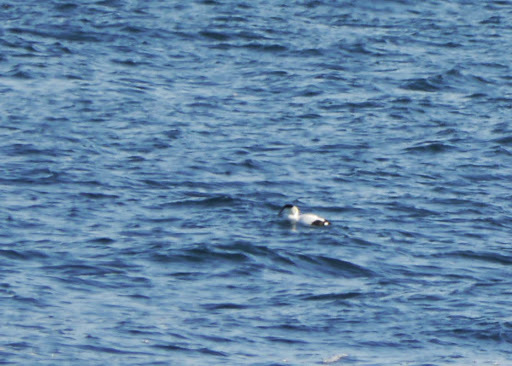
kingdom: Animalia
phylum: Chordata
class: Aves
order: Anseriformes
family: Anatidae
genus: Somateria
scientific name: Somateria mollissima
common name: Common eider
